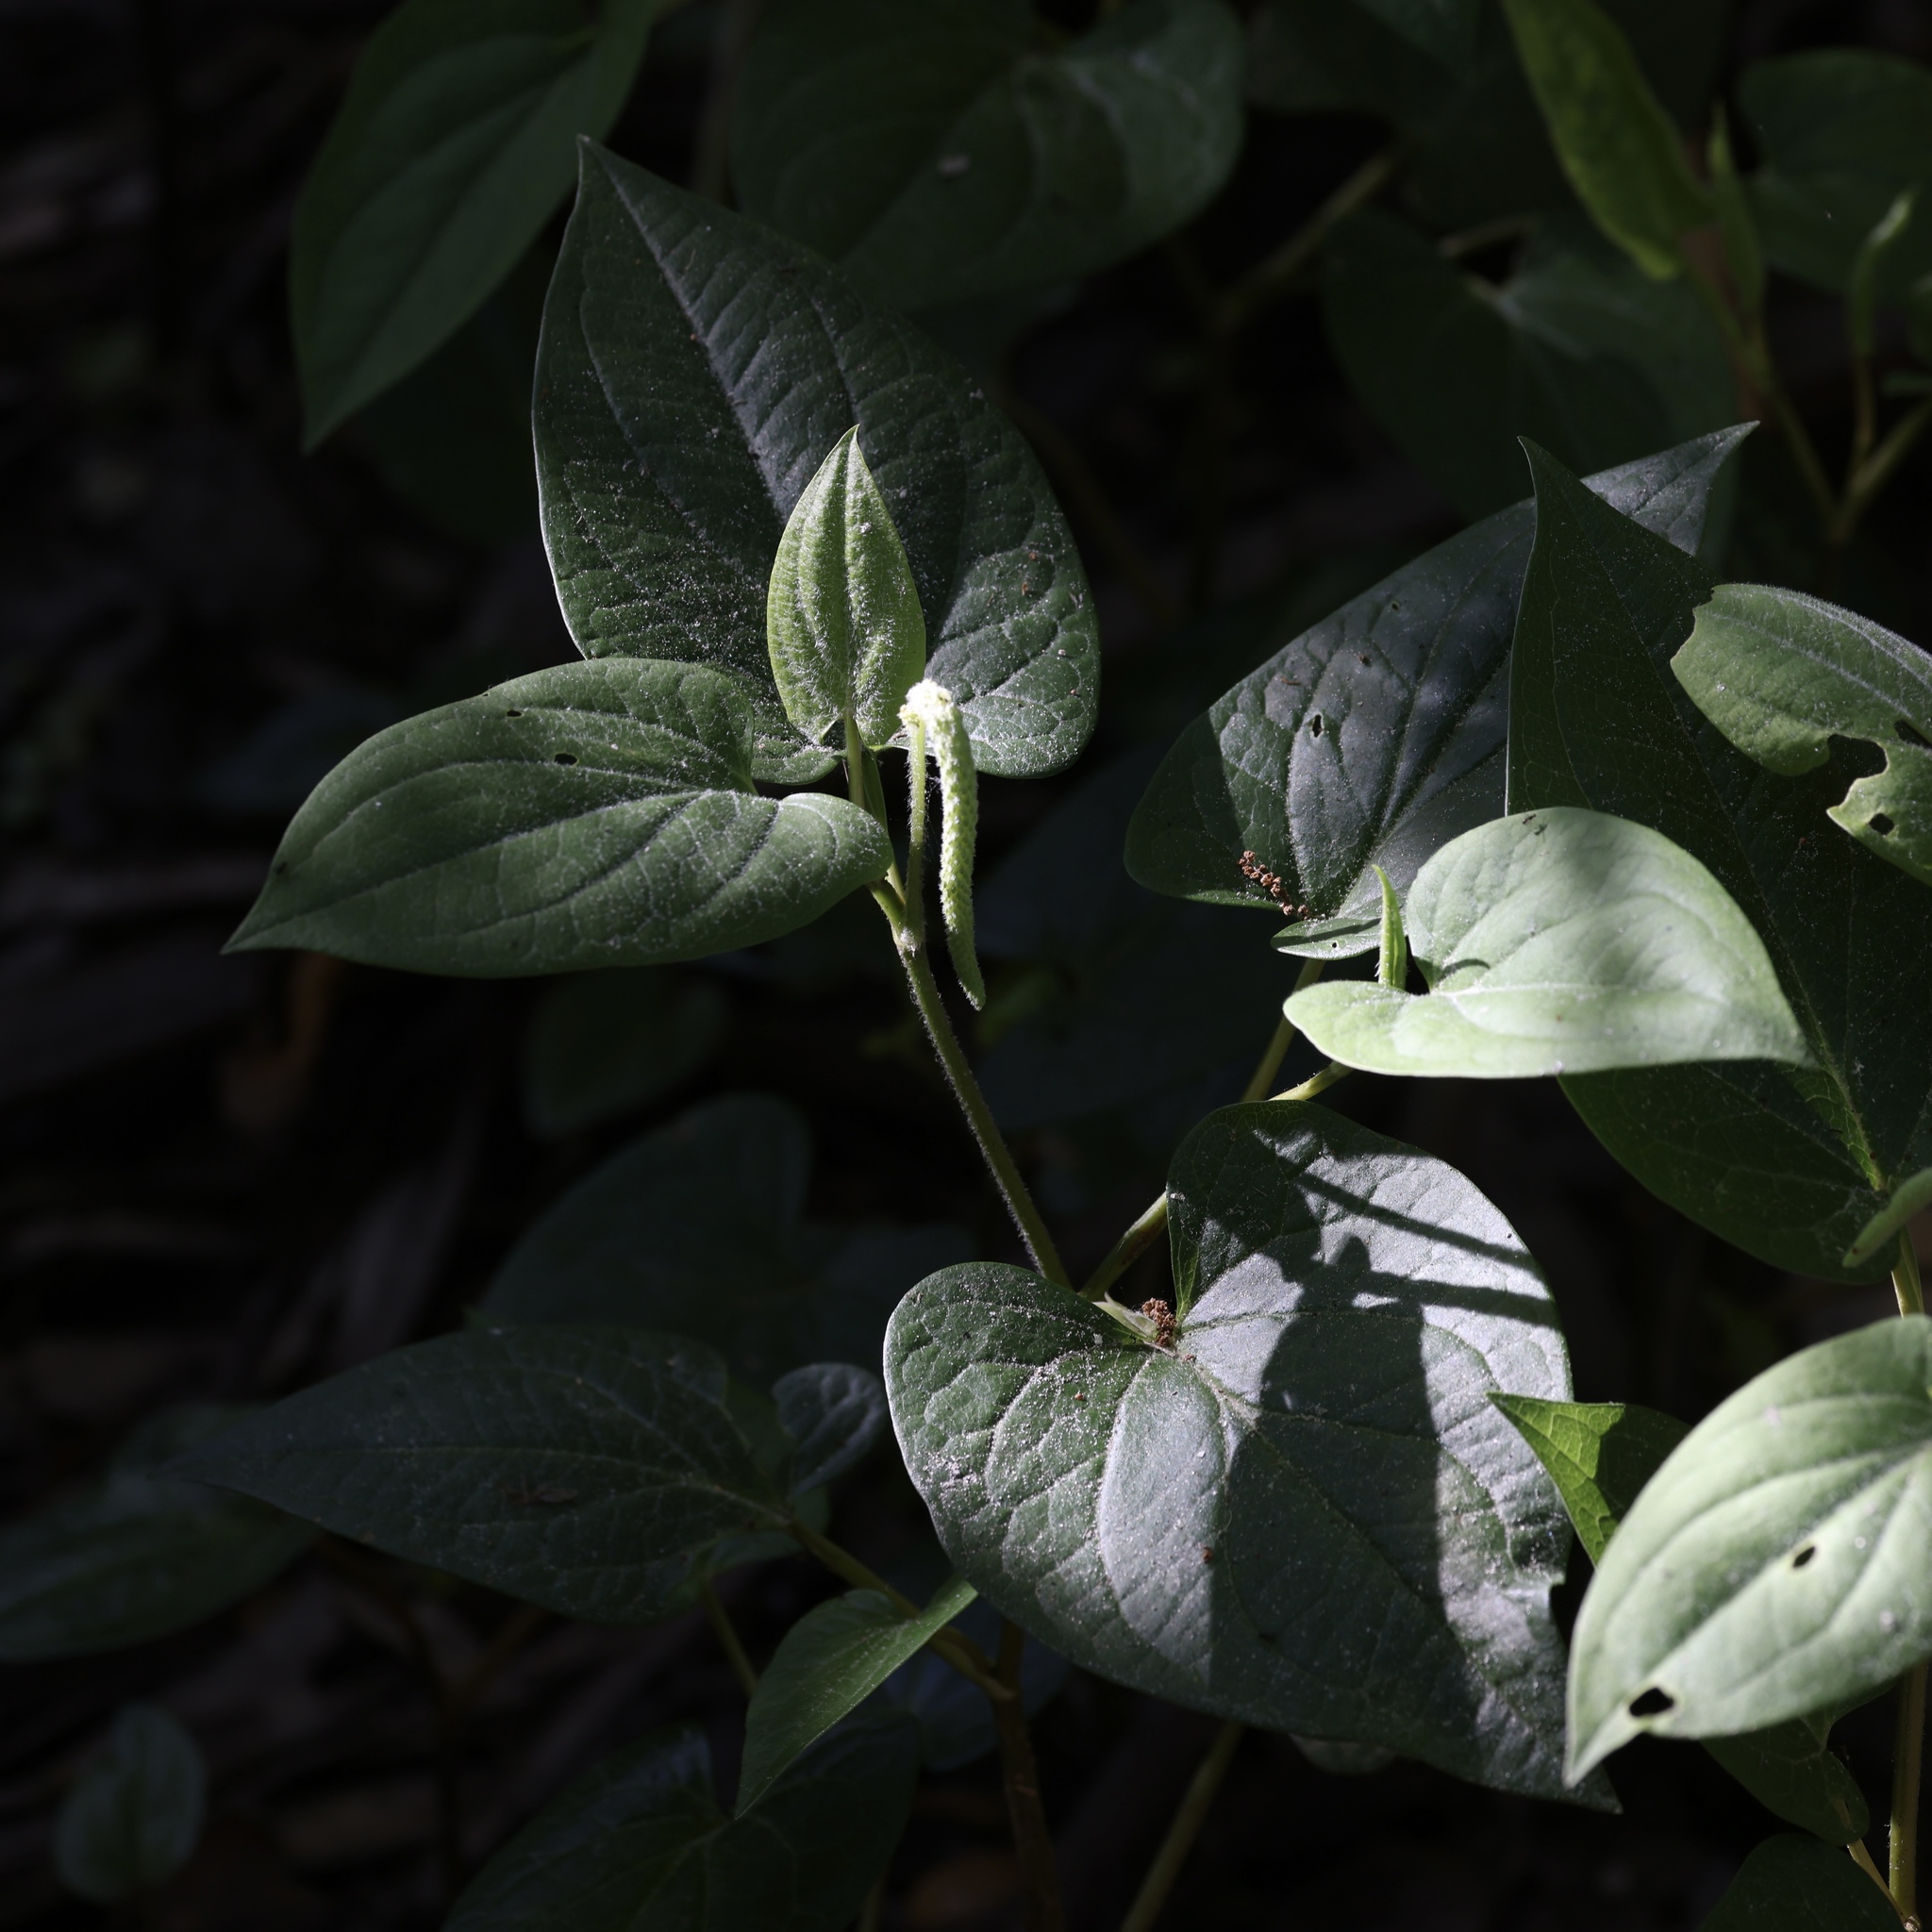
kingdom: Plantae
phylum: Tracheophyta
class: Magnoliopsida
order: Piperales
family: Saururaceae
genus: Saururus
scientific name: Saururus cernuus
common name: Lizard's-tail
